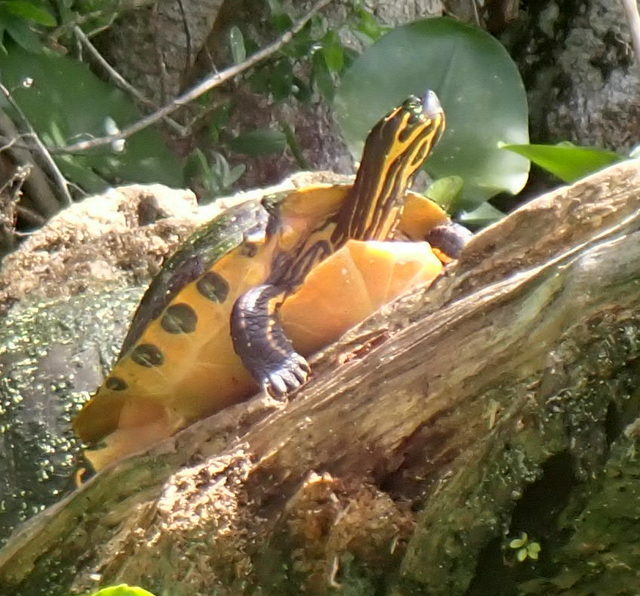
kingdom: Animalia
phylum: Chordata
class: Testudines
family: Emydidae
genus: Pseudemys
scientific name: Pseudemys concinna
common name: Eastern river cooter
